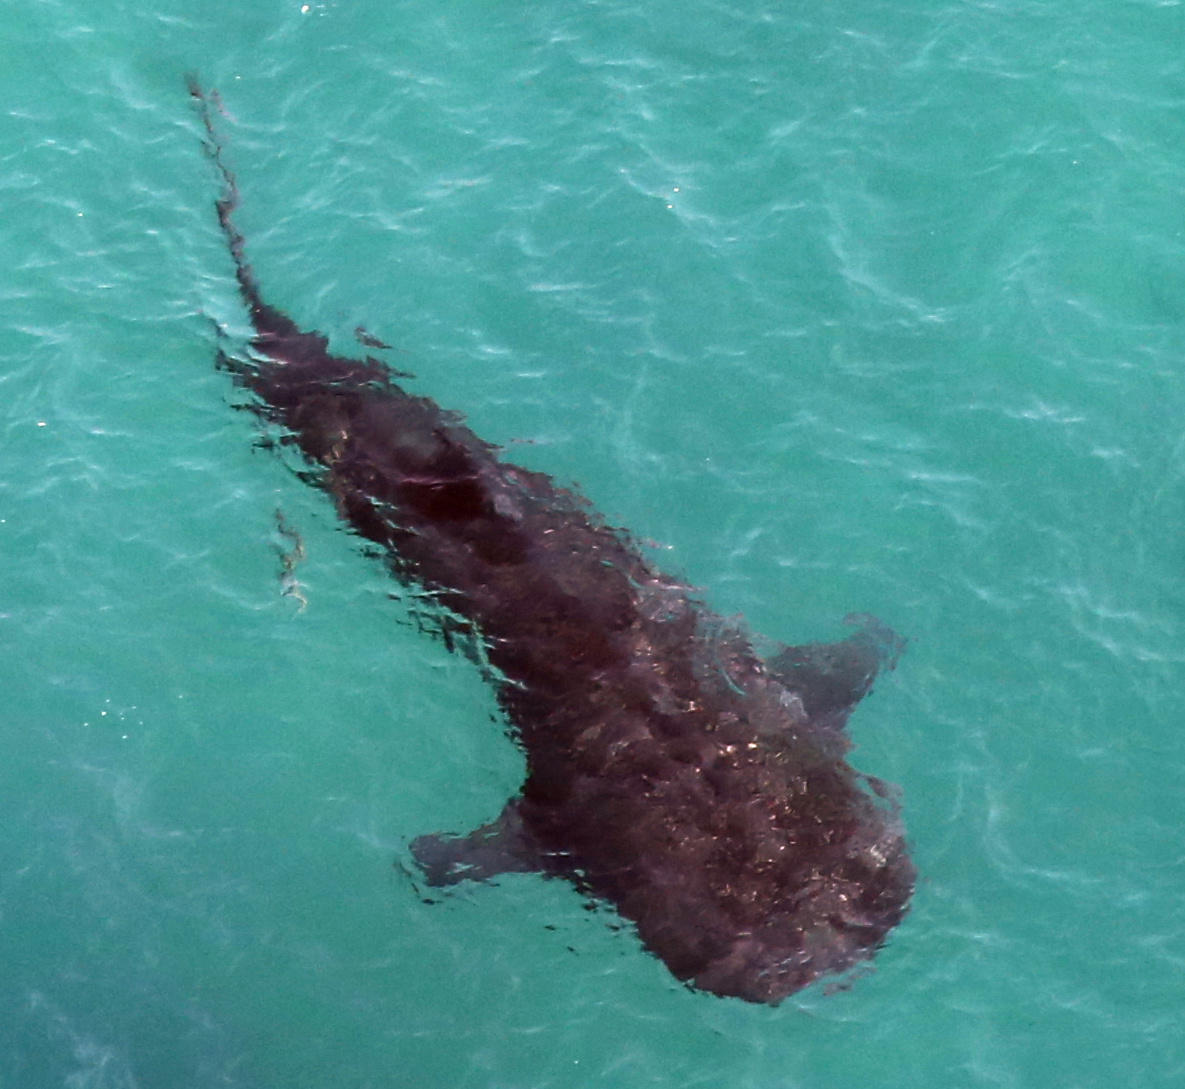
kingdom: Animalia
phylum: Chordata
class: Elasmobranchii
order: Orectolobiformes
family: Rhincodontidae
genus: Rhincodon
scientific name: Rhincodon typus
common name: Whale shark
